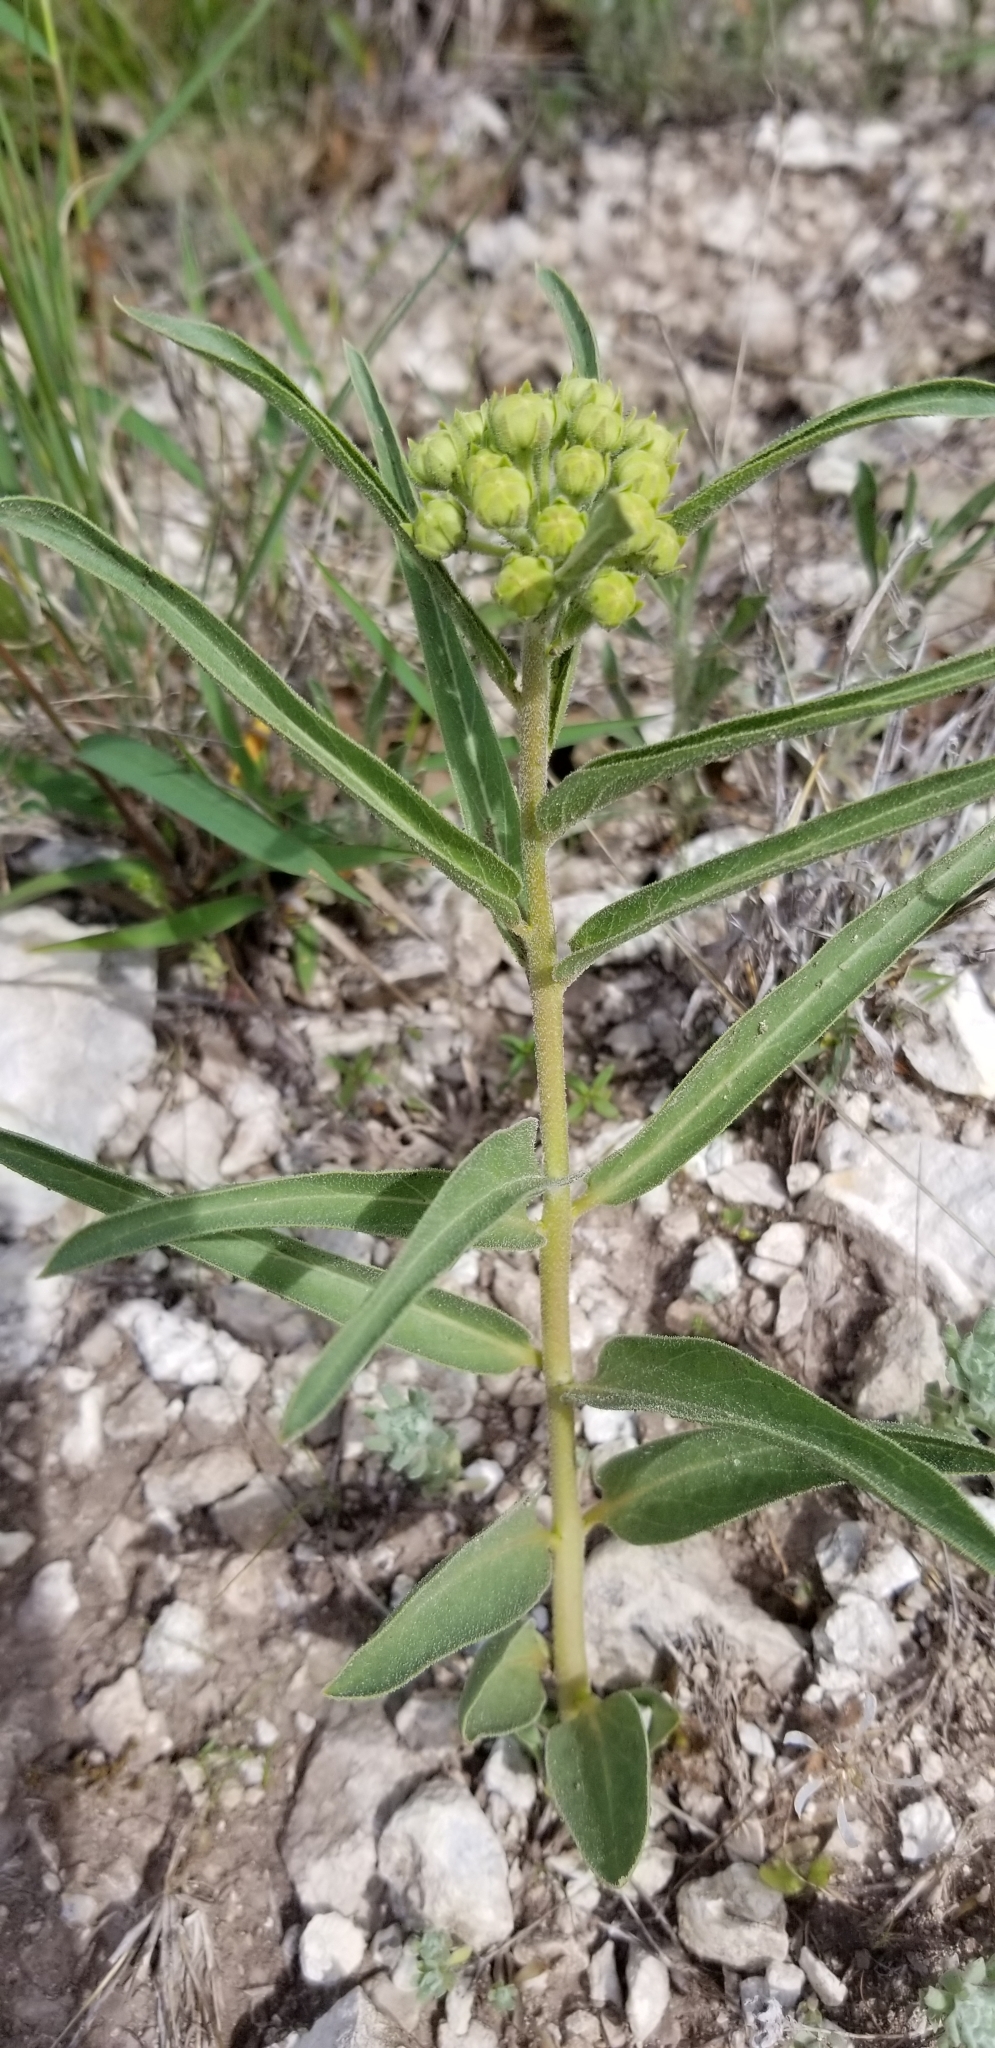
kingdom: Plantae
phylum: Tracheophyta
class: Magnoliopsida
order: Gentianales
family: Apocynaceae
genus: Asclepias
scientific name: Asclepias asperula
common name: Antelope horns
